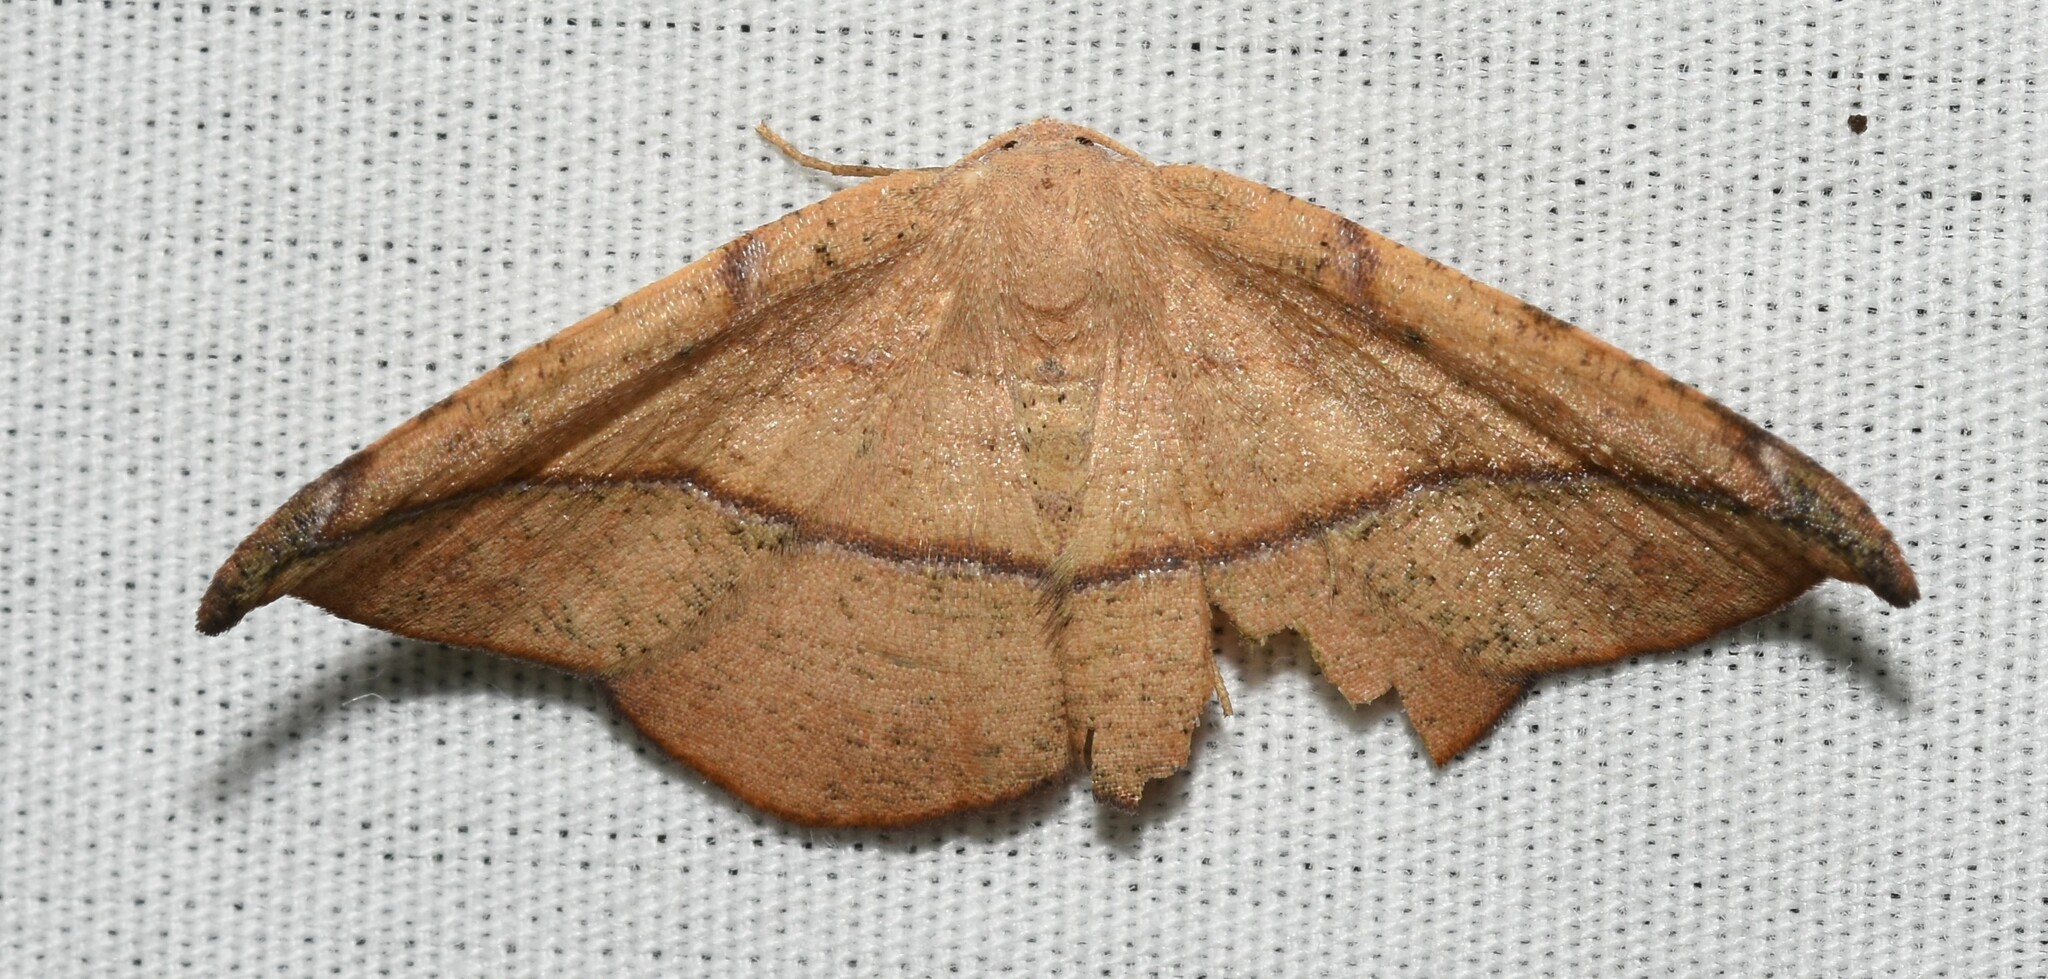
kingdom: Animalia
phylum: Arthropoda
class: Insecta
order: Lepidoptera
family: Geometridae
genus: Patalene
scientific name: Patalene olyzonaria
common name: Juniper geometer moth
